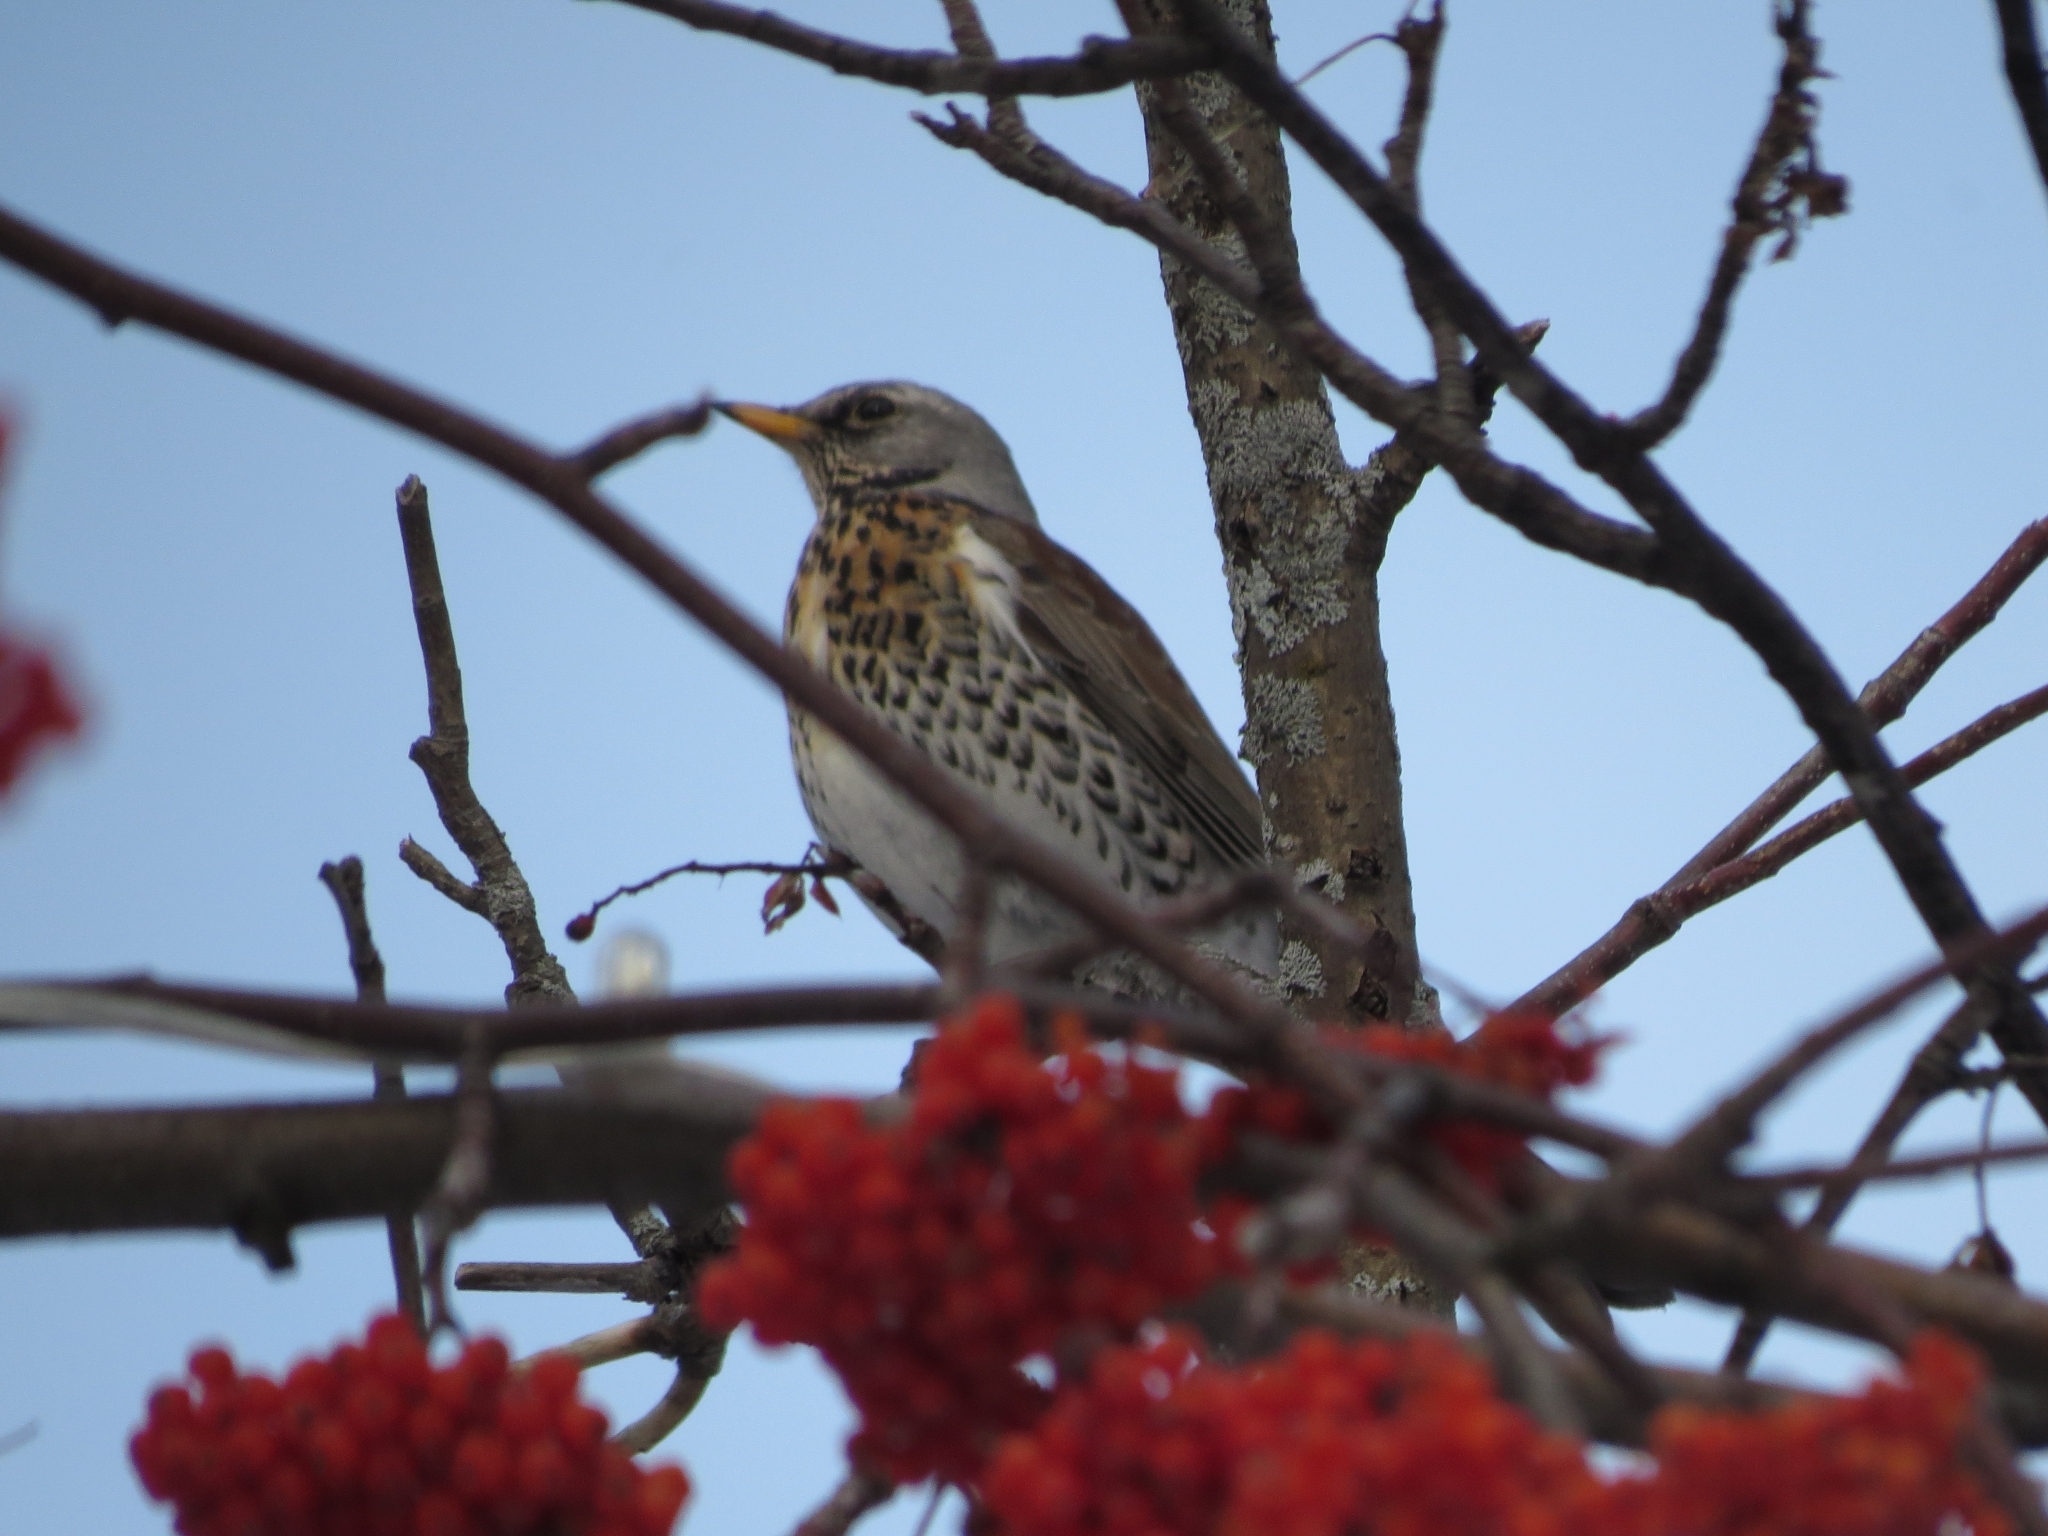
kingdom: Animalia
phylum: Chordata
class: Aves
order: Passeriformes
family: Turdidae
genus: Turdus
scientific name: Turdus pilaris
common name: Fieldfare
